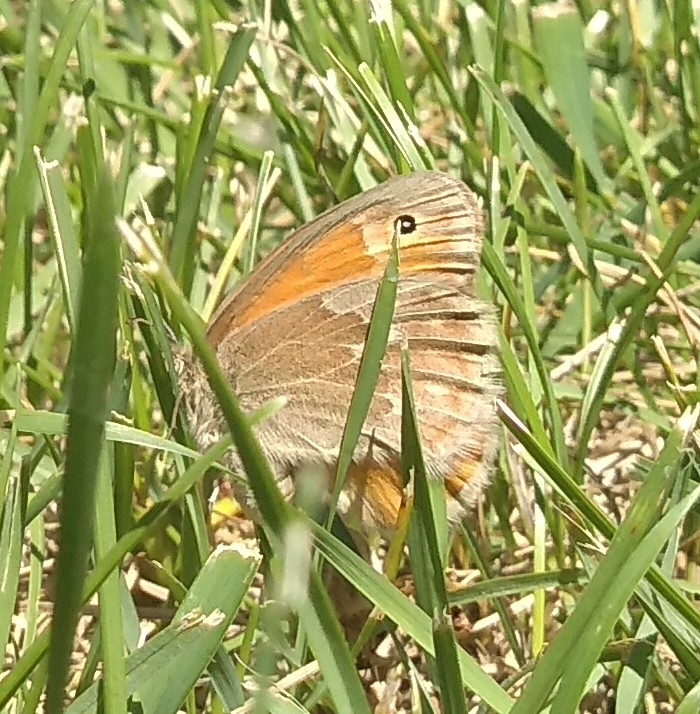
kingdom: Animalia
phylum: Arthropoda
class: Insecta
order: Lepidoptera
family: Nymphalidae
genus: Coenonympha
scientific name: Coenonympha california
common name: Common ringlet
